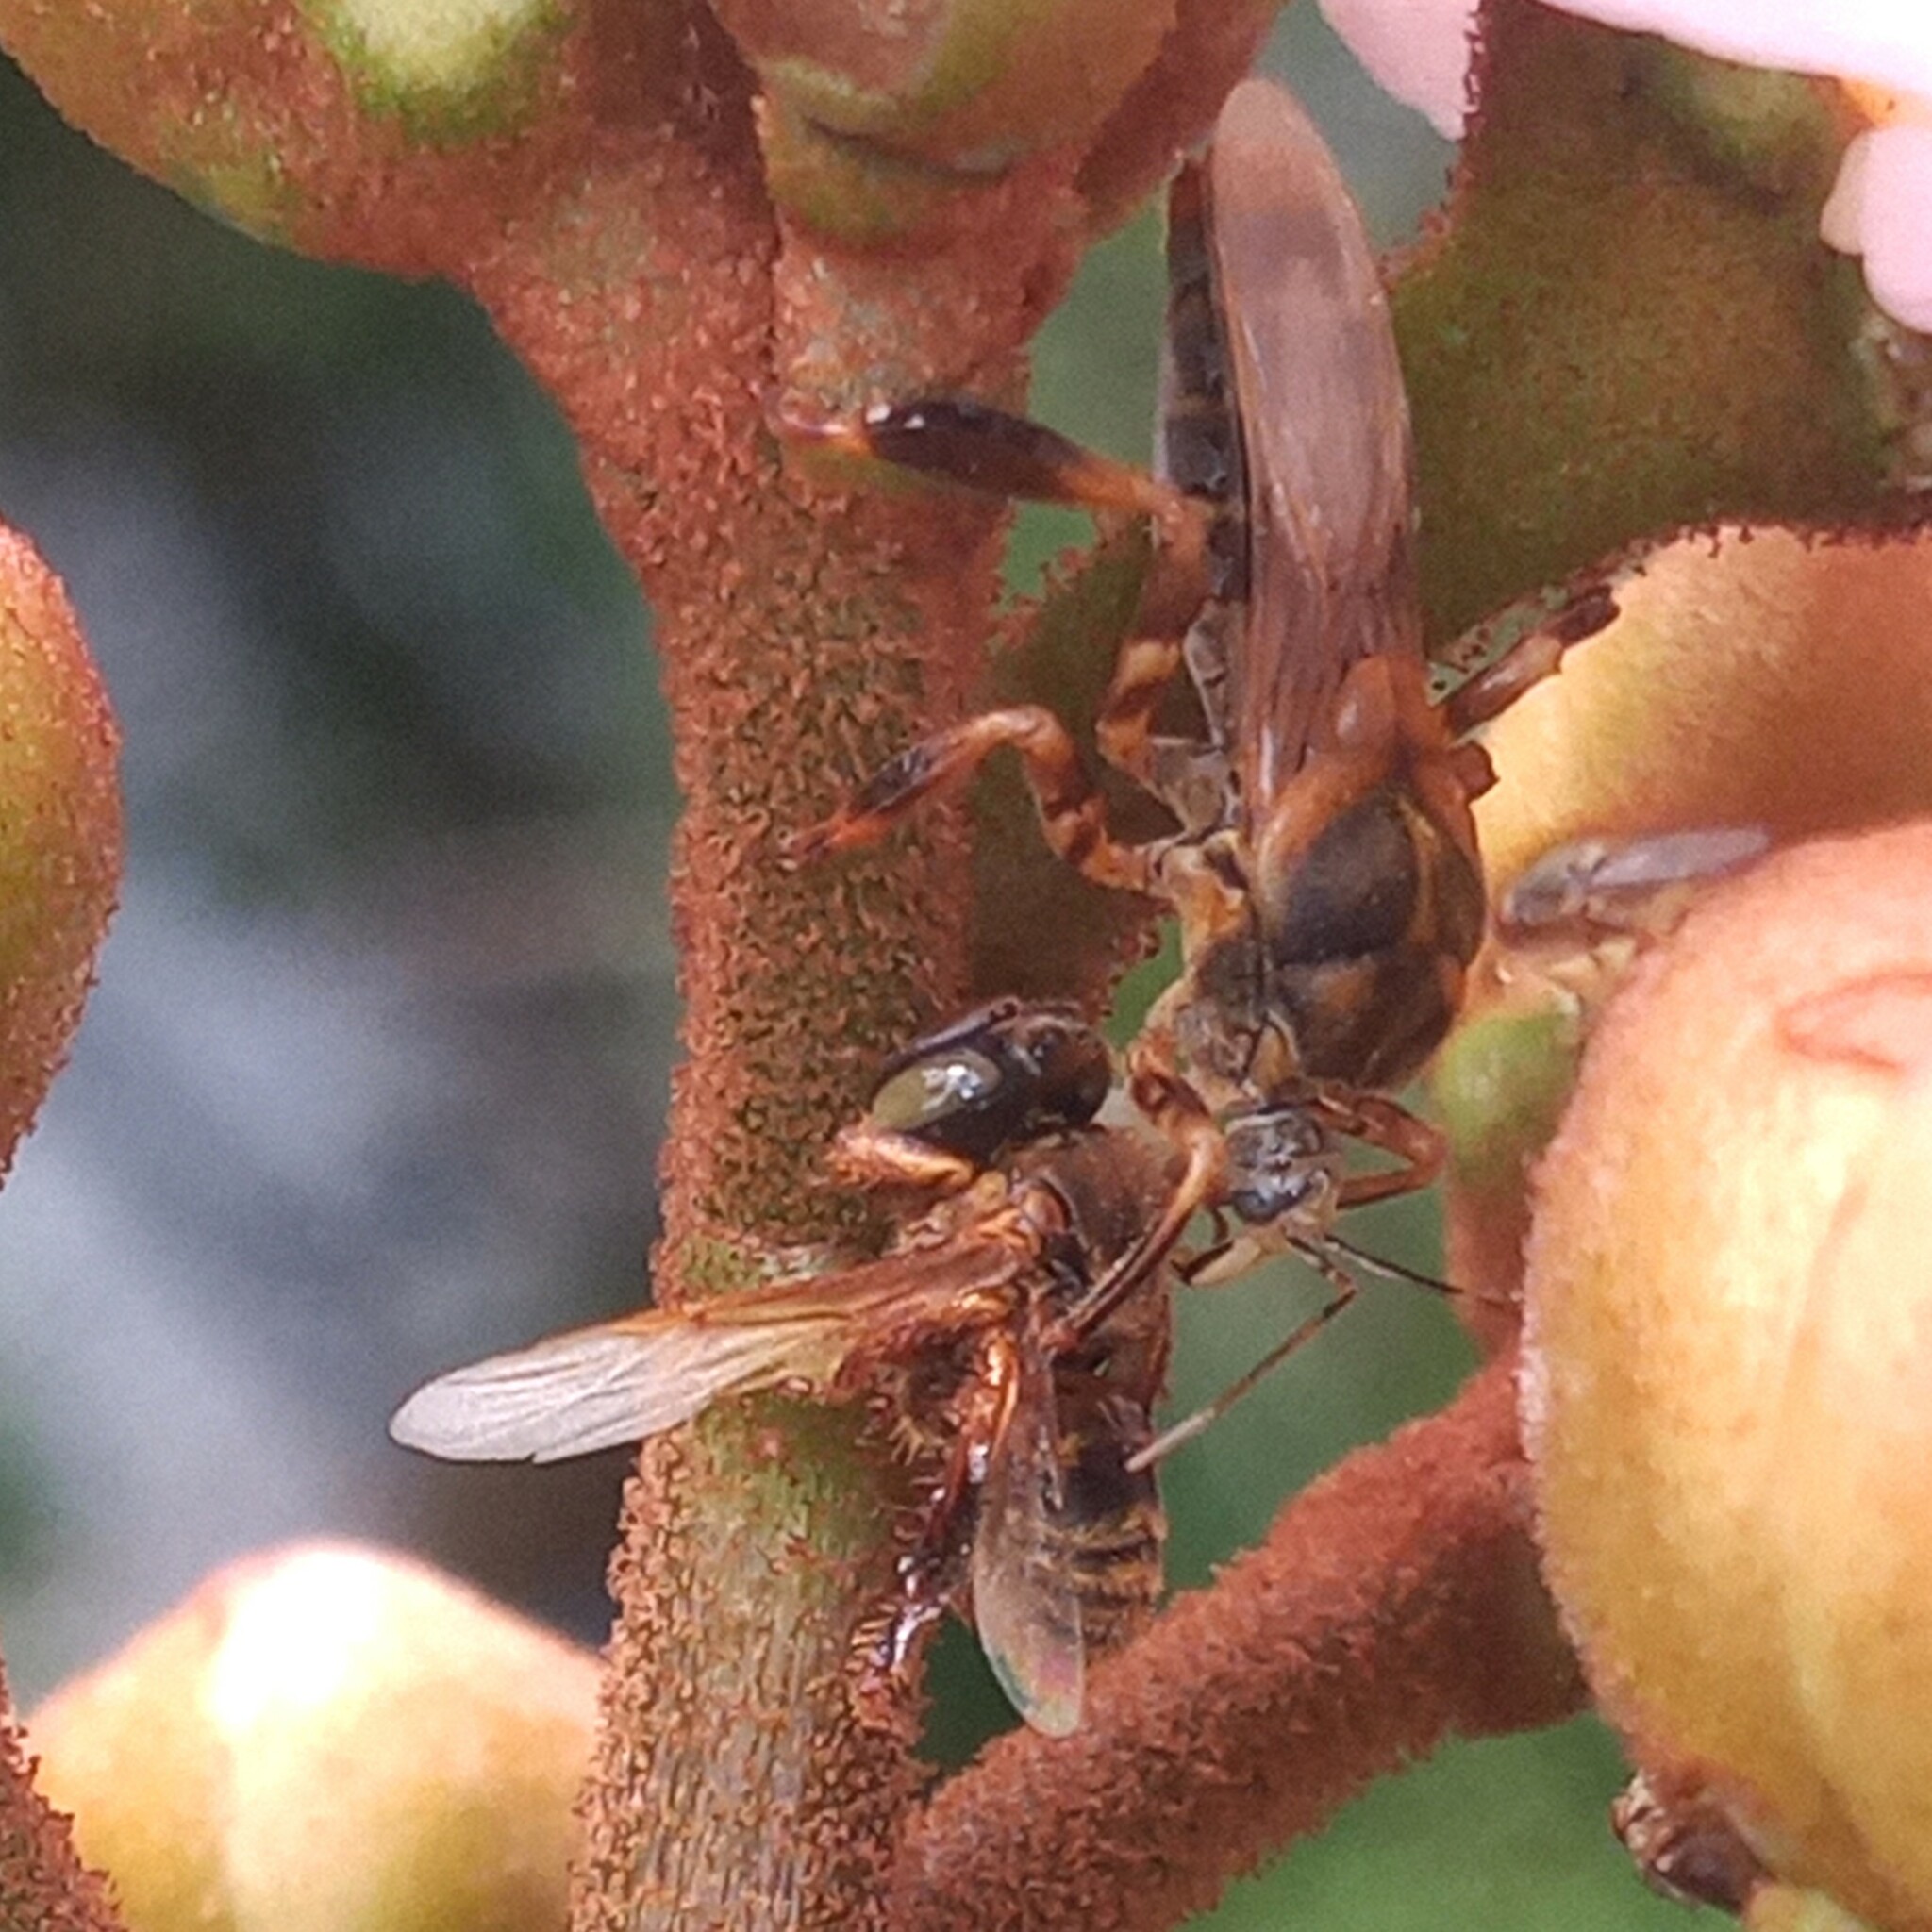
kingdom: Animalia
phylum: Arthropoda
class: Insecta
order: Hymenoptera
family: Apidae
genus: Tetragona
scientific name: Tetragona clavipes
